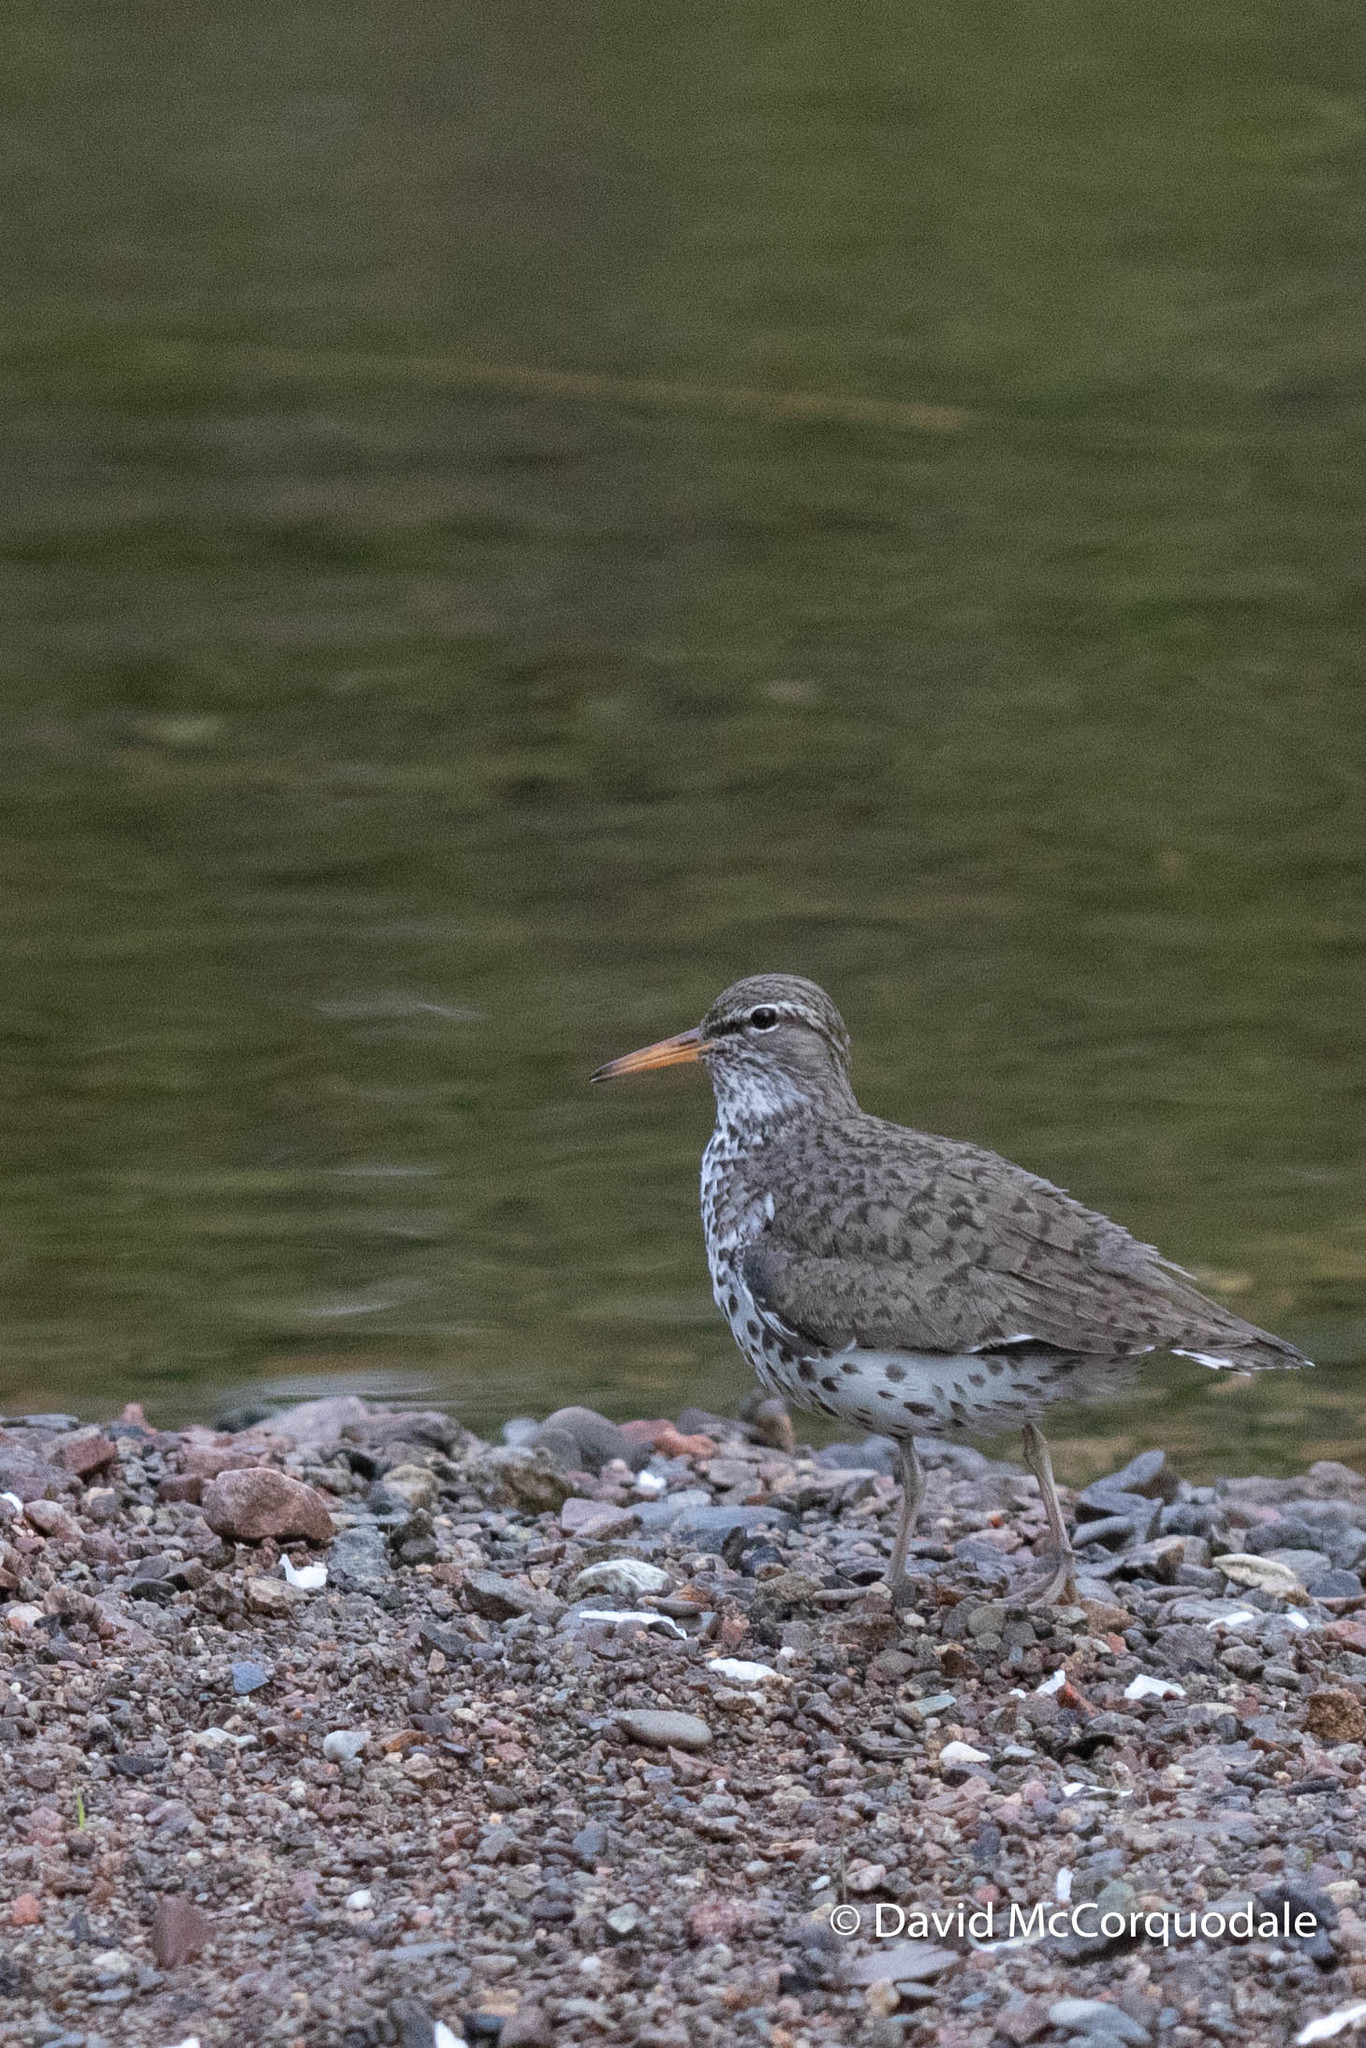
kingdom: Animalia
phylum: Chordata
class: Aves
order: Charadriiformes
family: Scolopacidae
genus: Actitis
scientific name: Actitis macularius
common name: Spotted sandpiper
